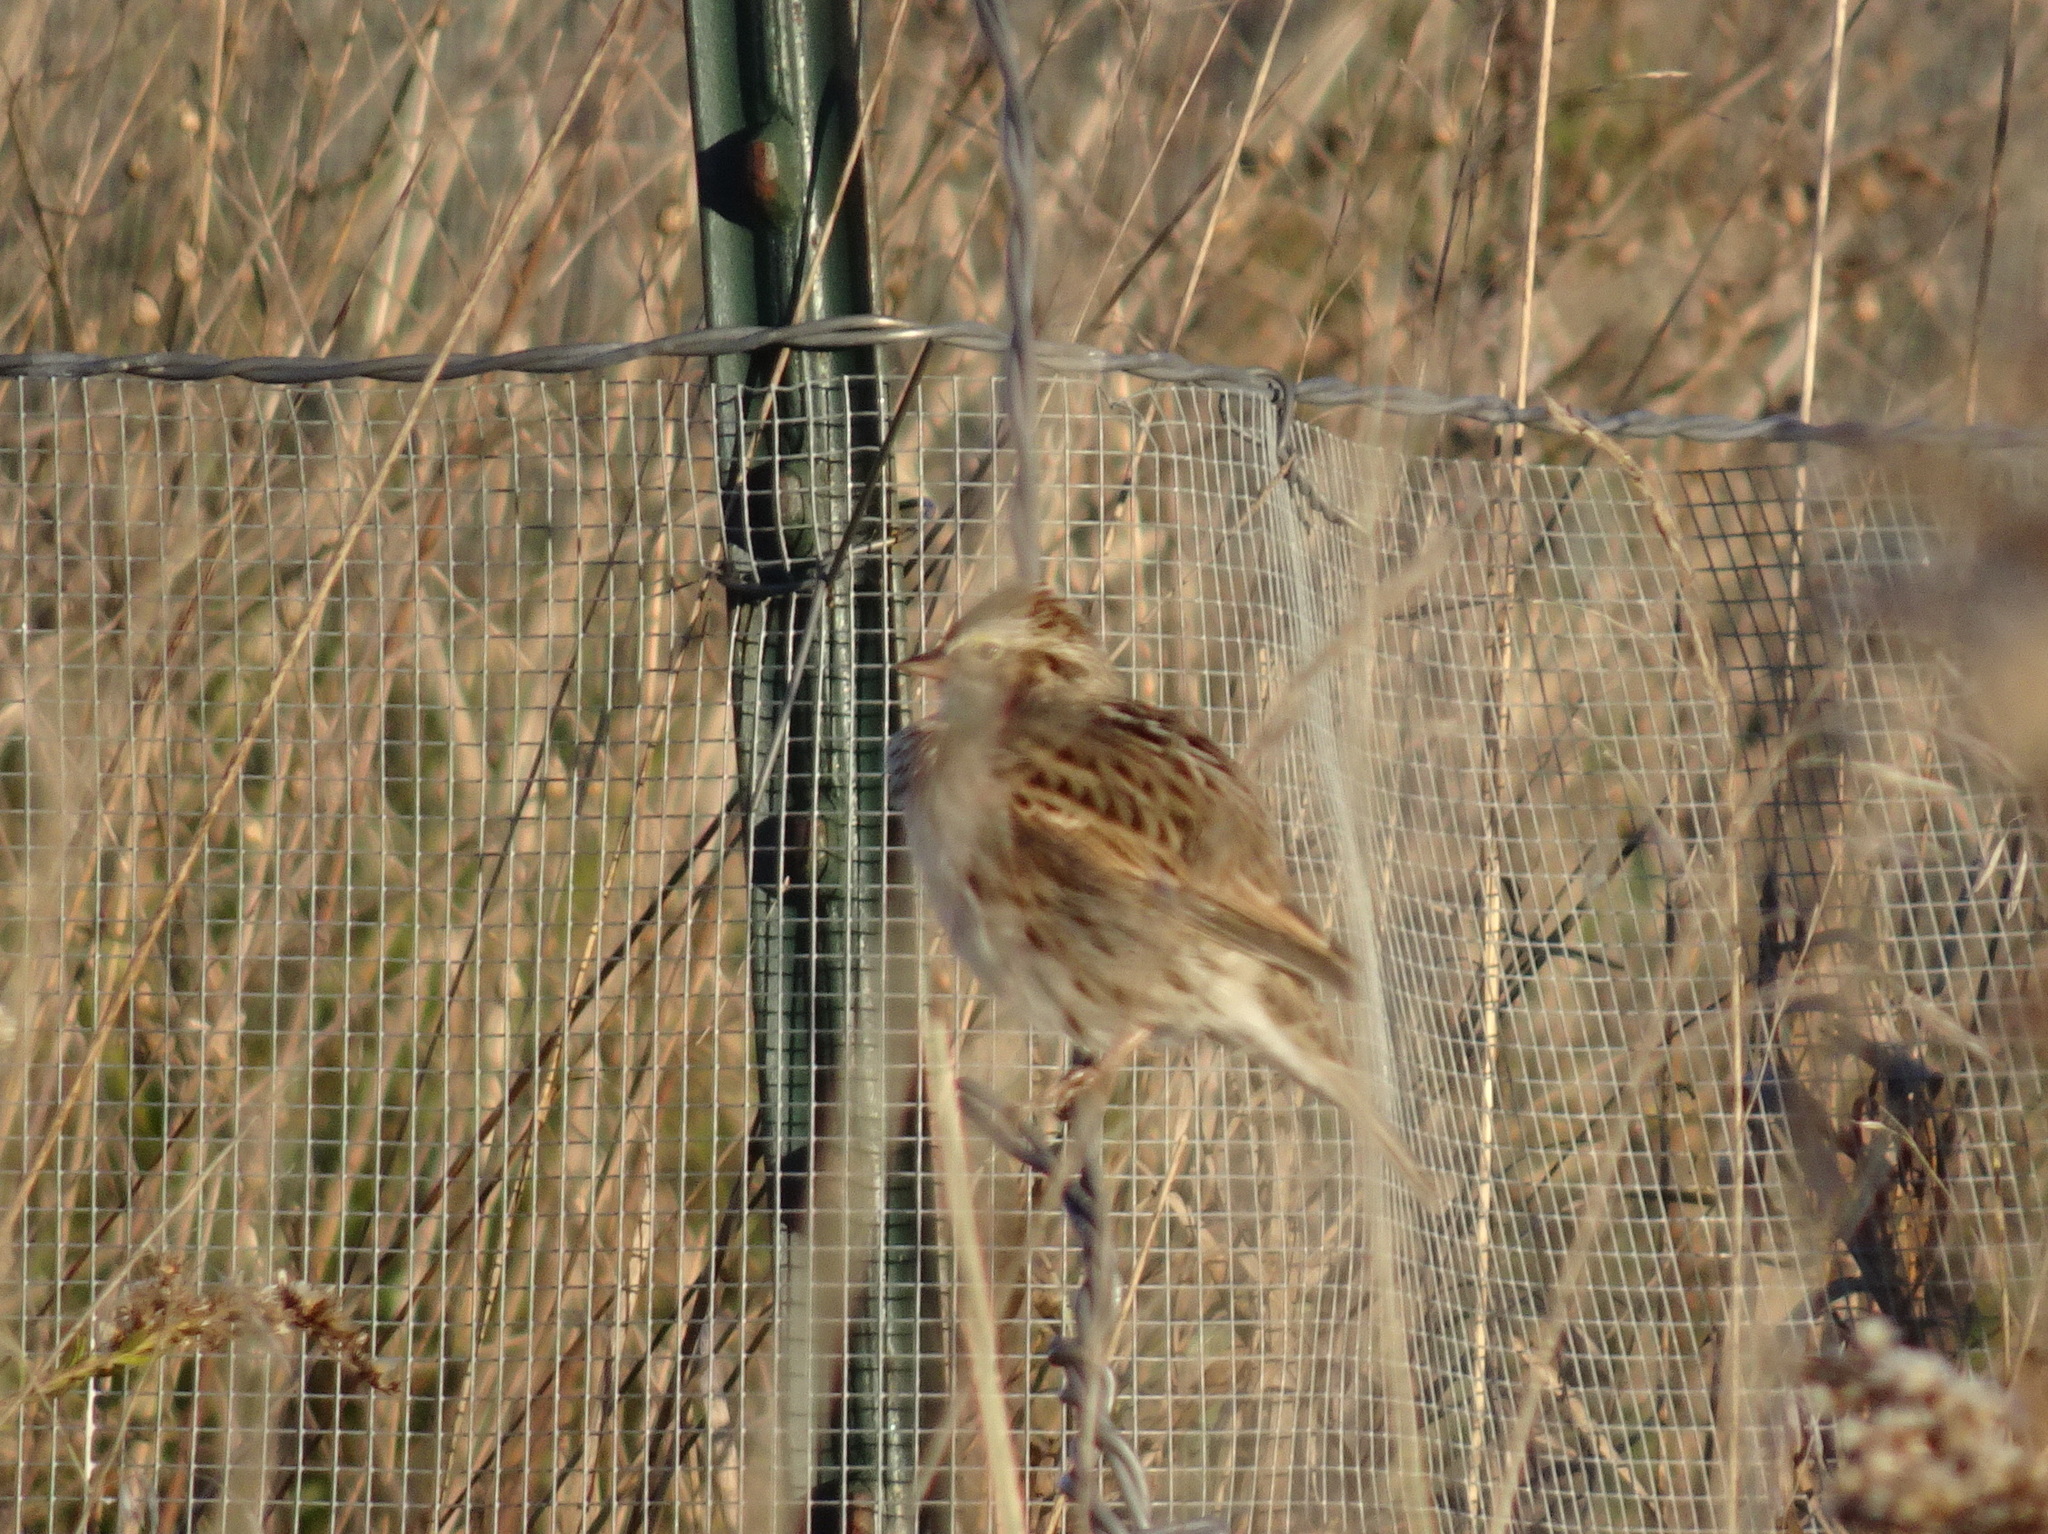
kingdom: Animalia
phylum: Chordata
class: Aves
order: Passeriformes
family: Passerellidae
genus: Passerculus
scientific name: Passerculus sandwichensis
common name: Savannah sparrow
